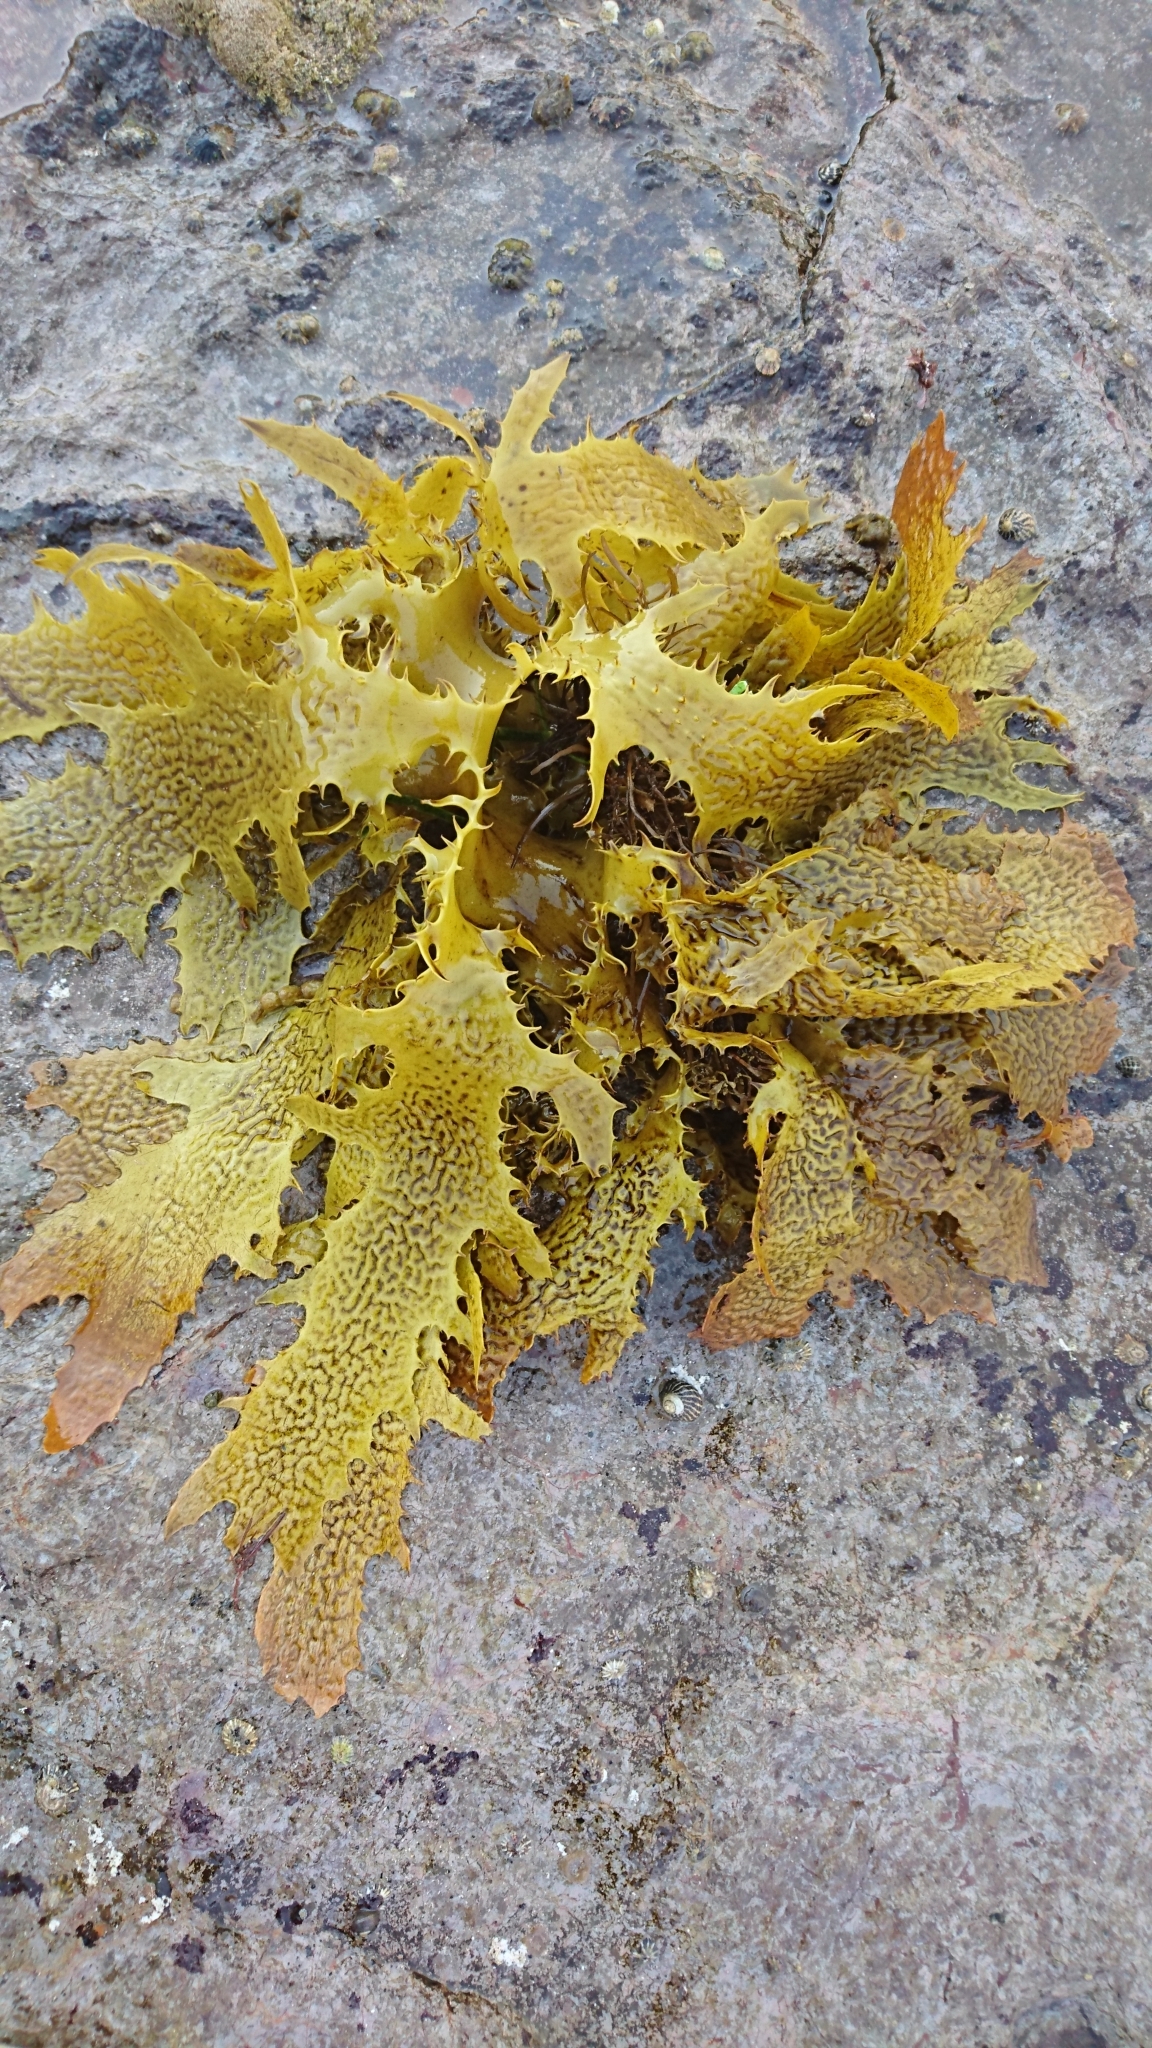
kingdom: Chromista
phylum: Ochrophyta
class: Phaeophyceae
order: Laminariales
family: Lessoniaceae
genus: Ecklonia
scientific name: Ecklonia radiata
